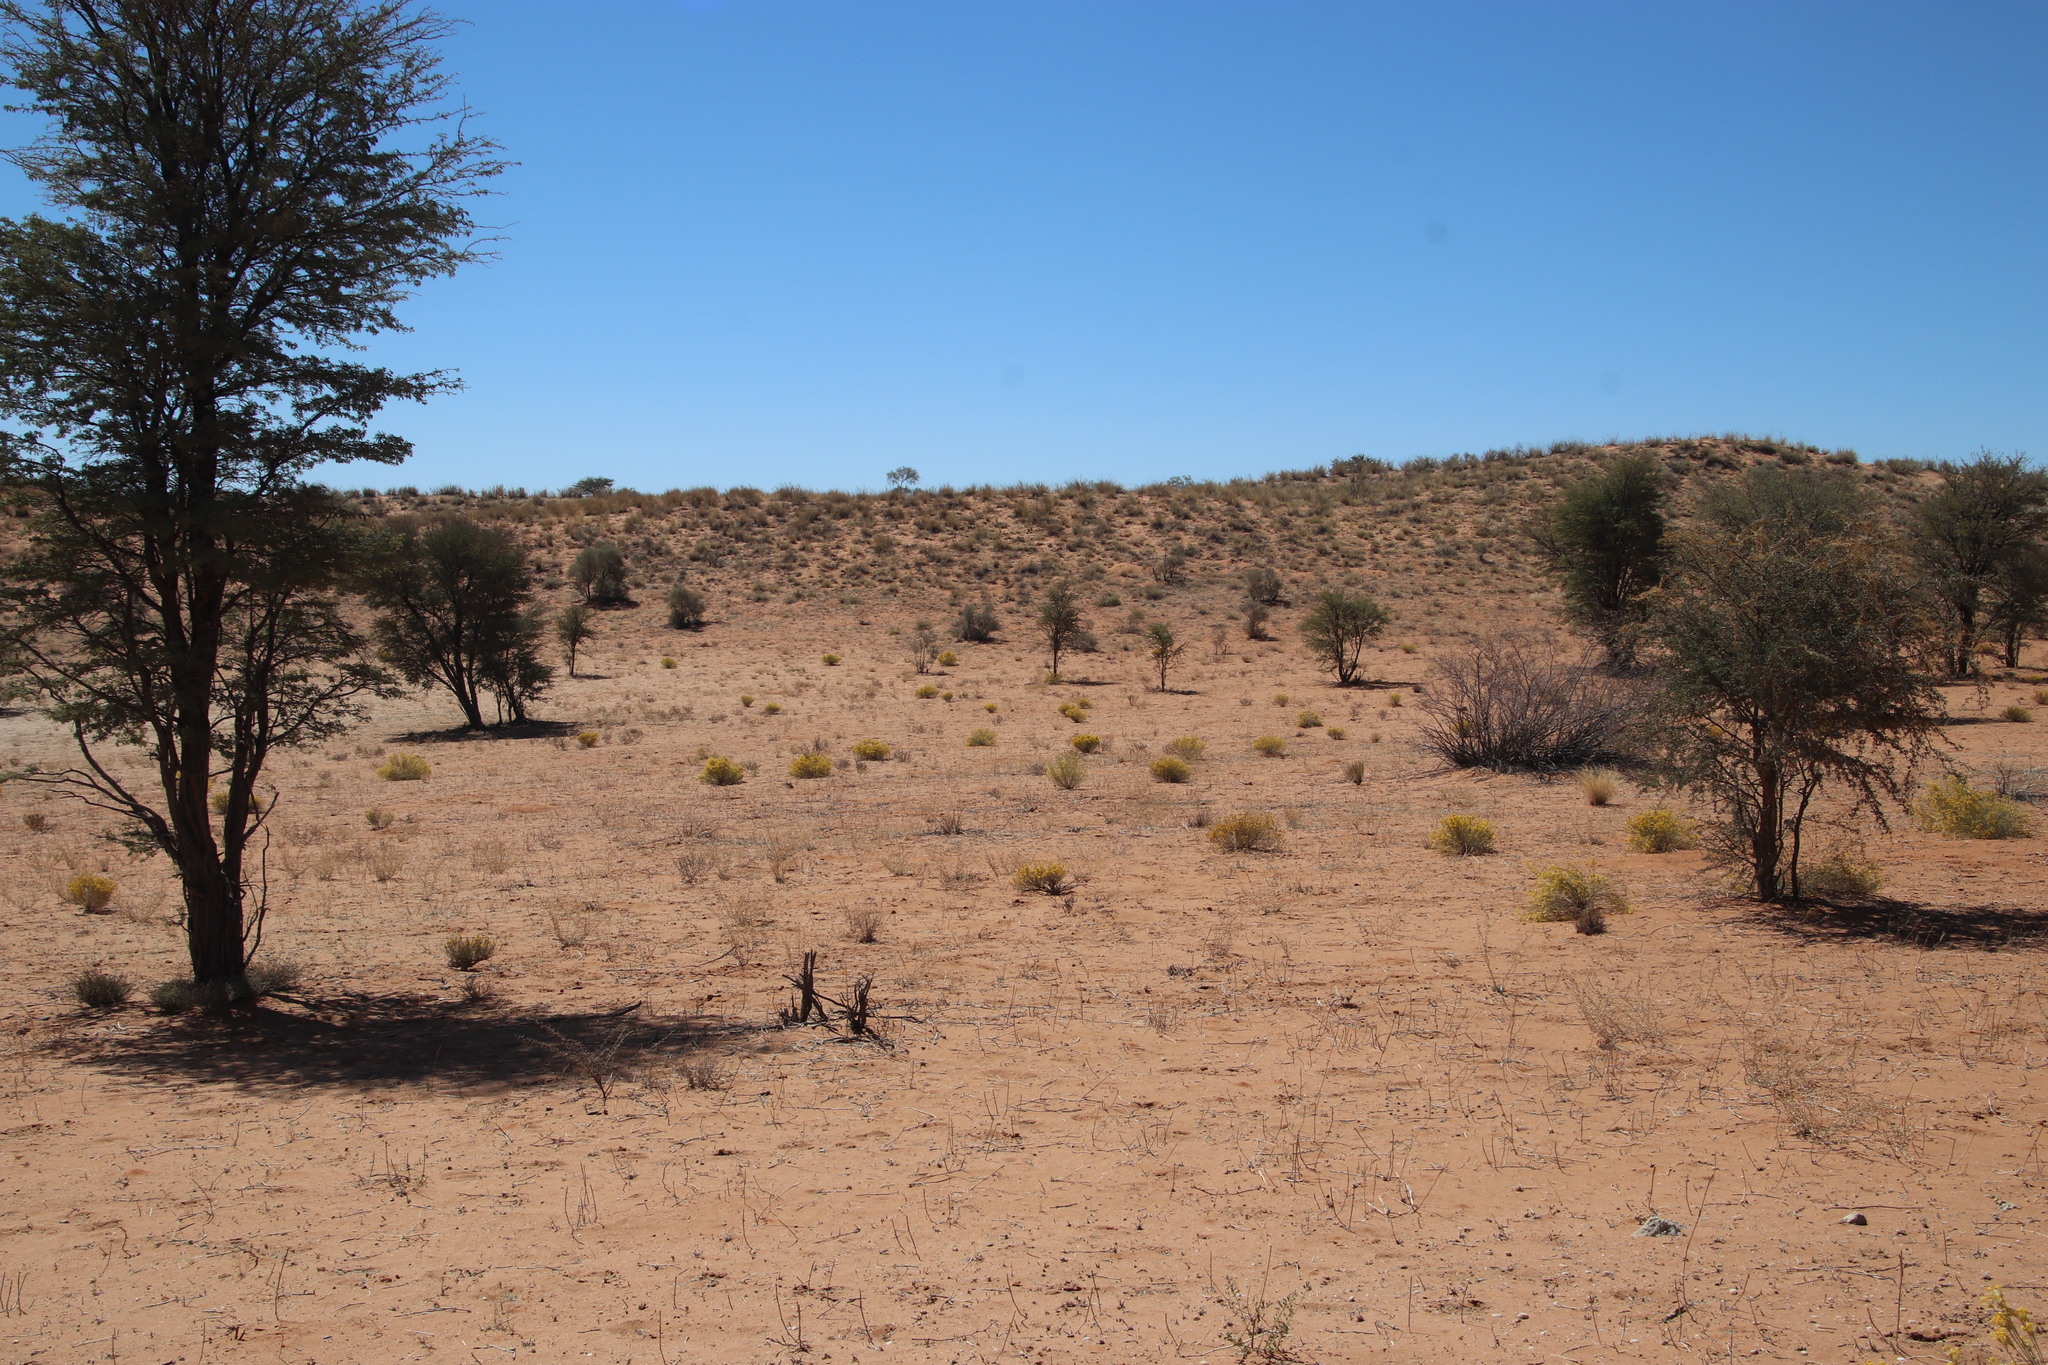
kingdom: Plantae
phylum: Tracheophyta
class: Magnoliopsida
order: Malvales
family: Thymelaeaceae
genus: Gnidia
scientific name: Gnidia polycephala
